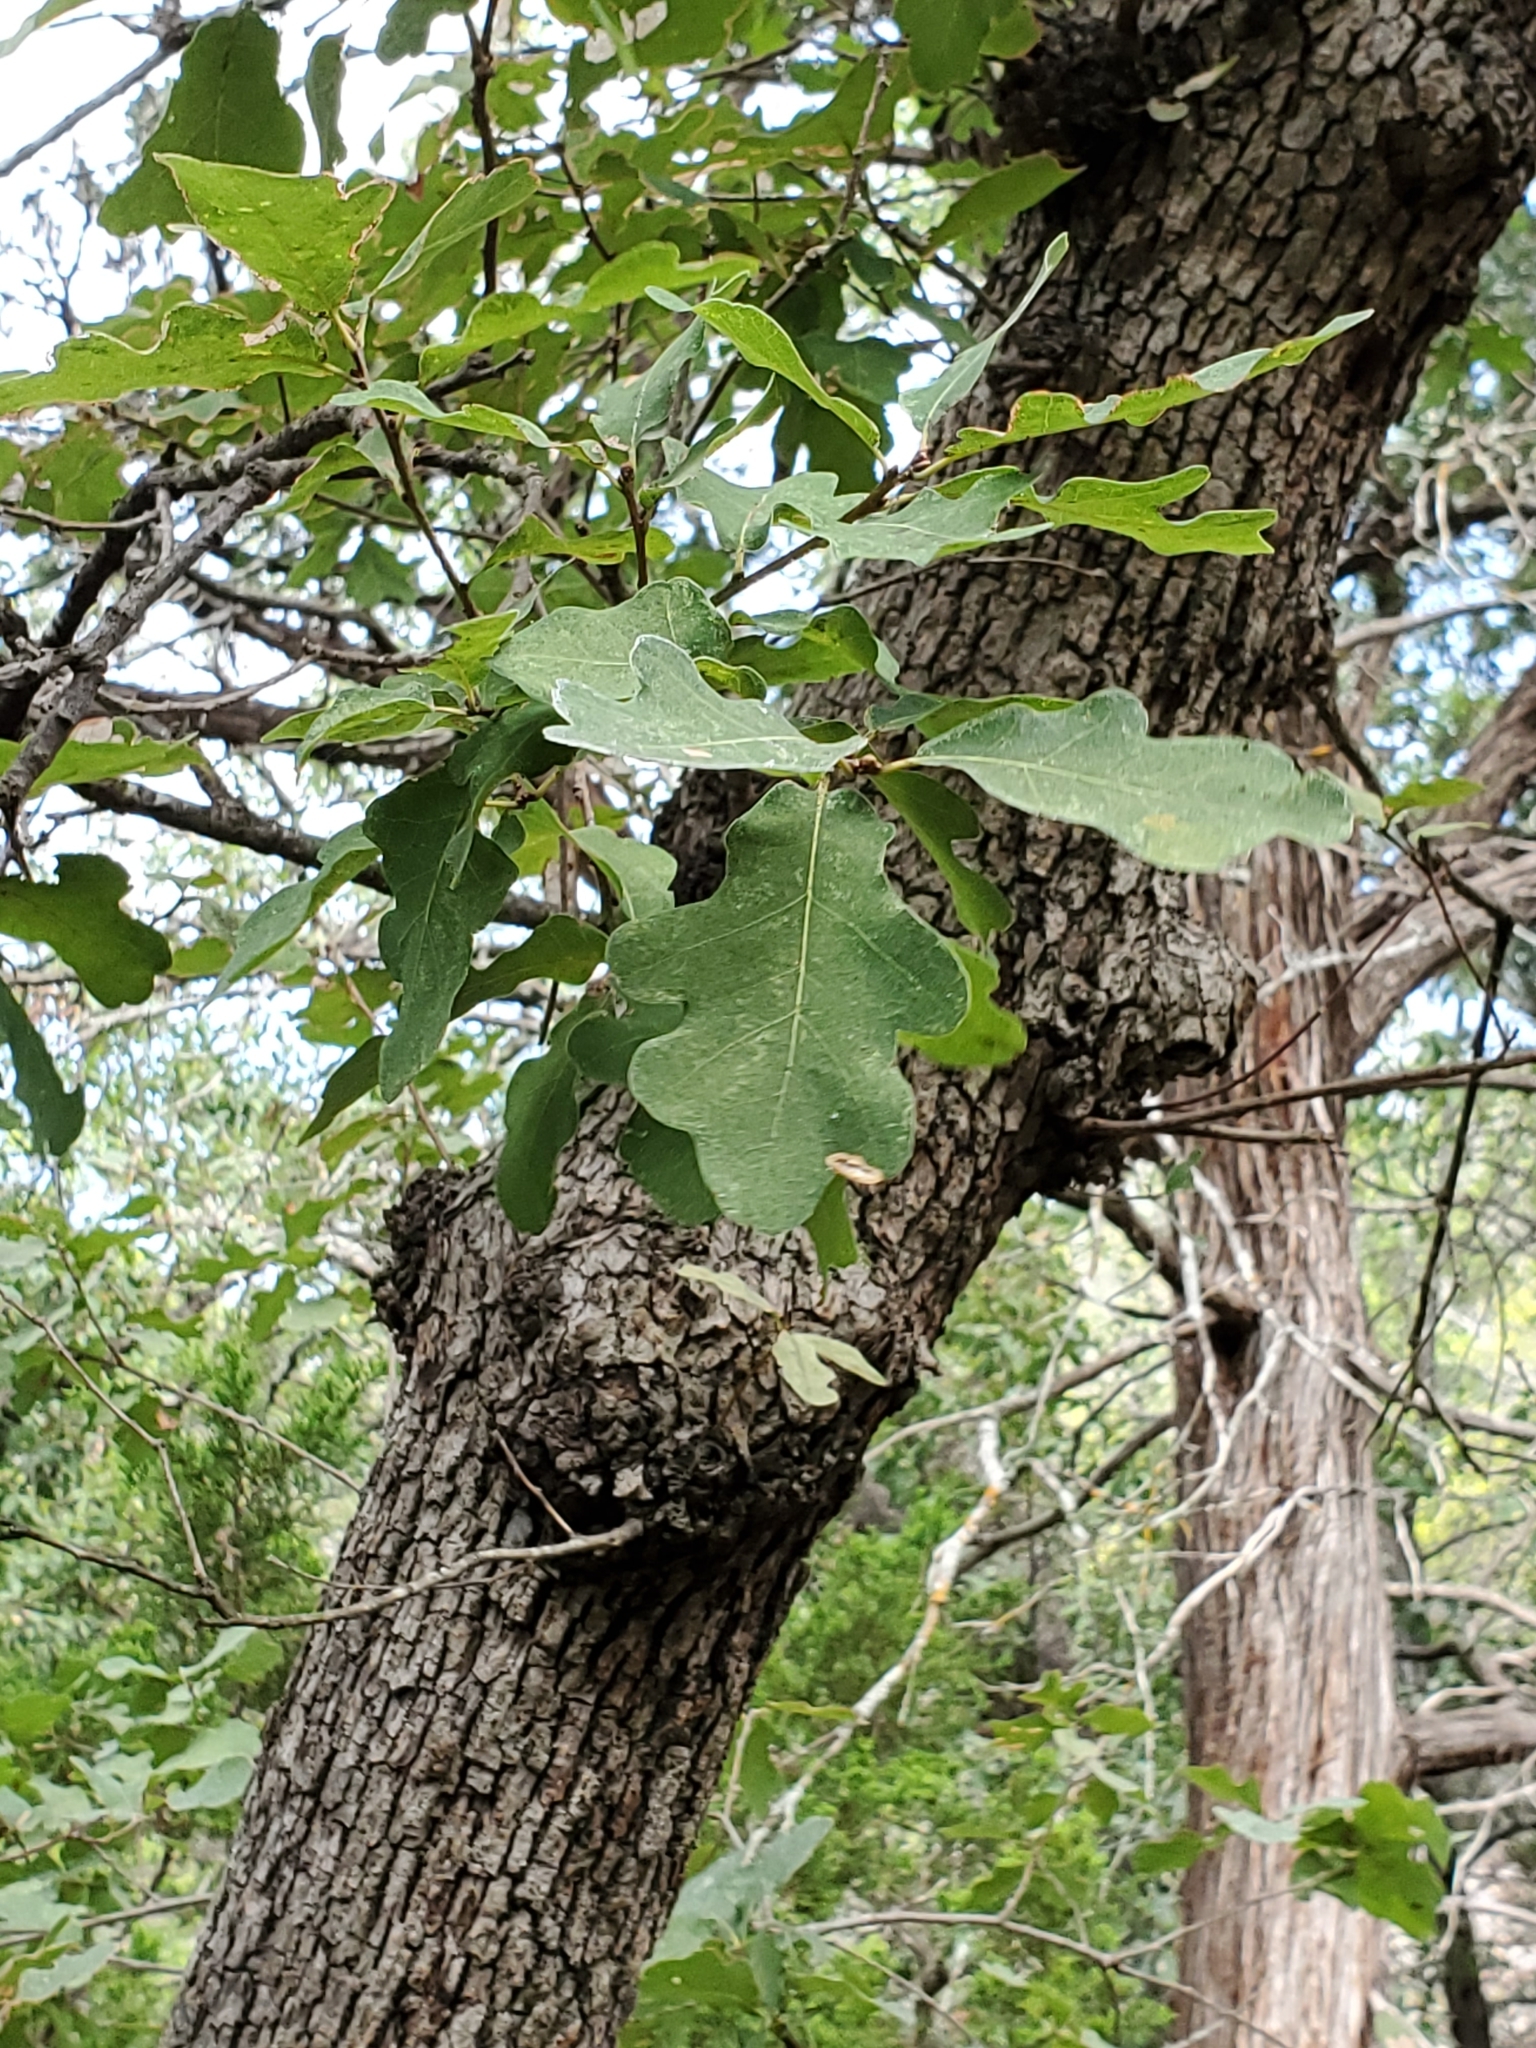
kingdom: Plantae
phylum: Tracheophyta
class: Magnoliopsida
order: Fagales
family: Fagaceae
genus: Quercus
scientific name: Quercus laceyi
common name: Lacey oak
